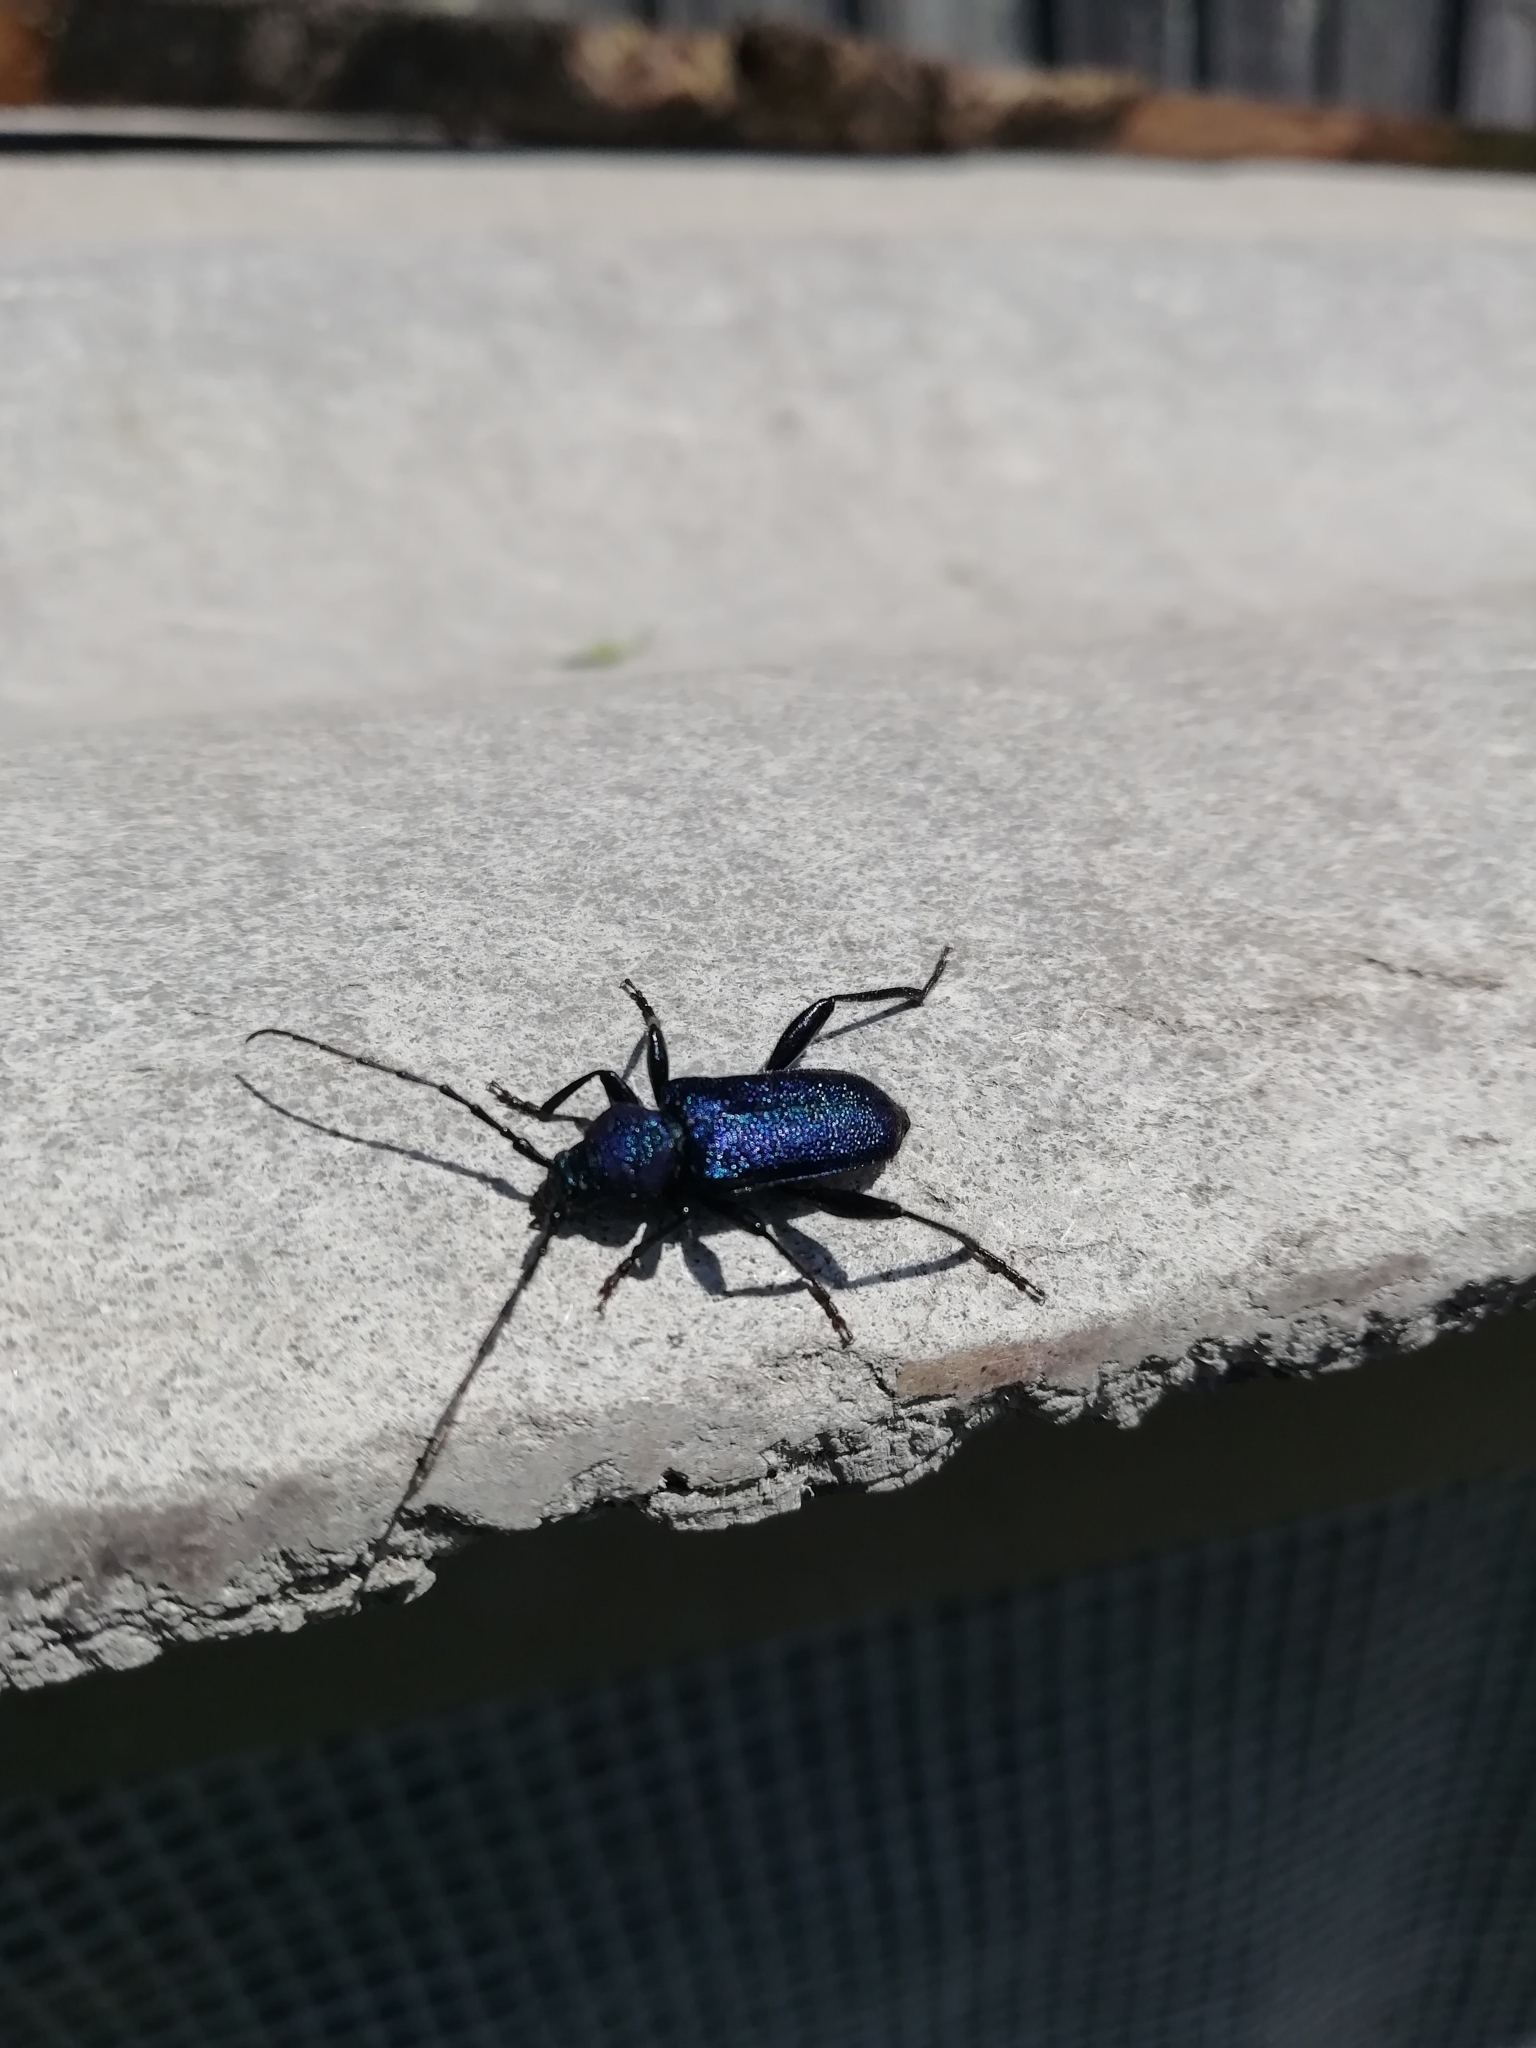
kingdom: Animalia
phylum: Arthropoda
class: Insecta
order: Coleoptera
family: Cerambycidae
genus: Callidium
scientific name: Callidium violaceum
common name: Violet tanbark beetle
